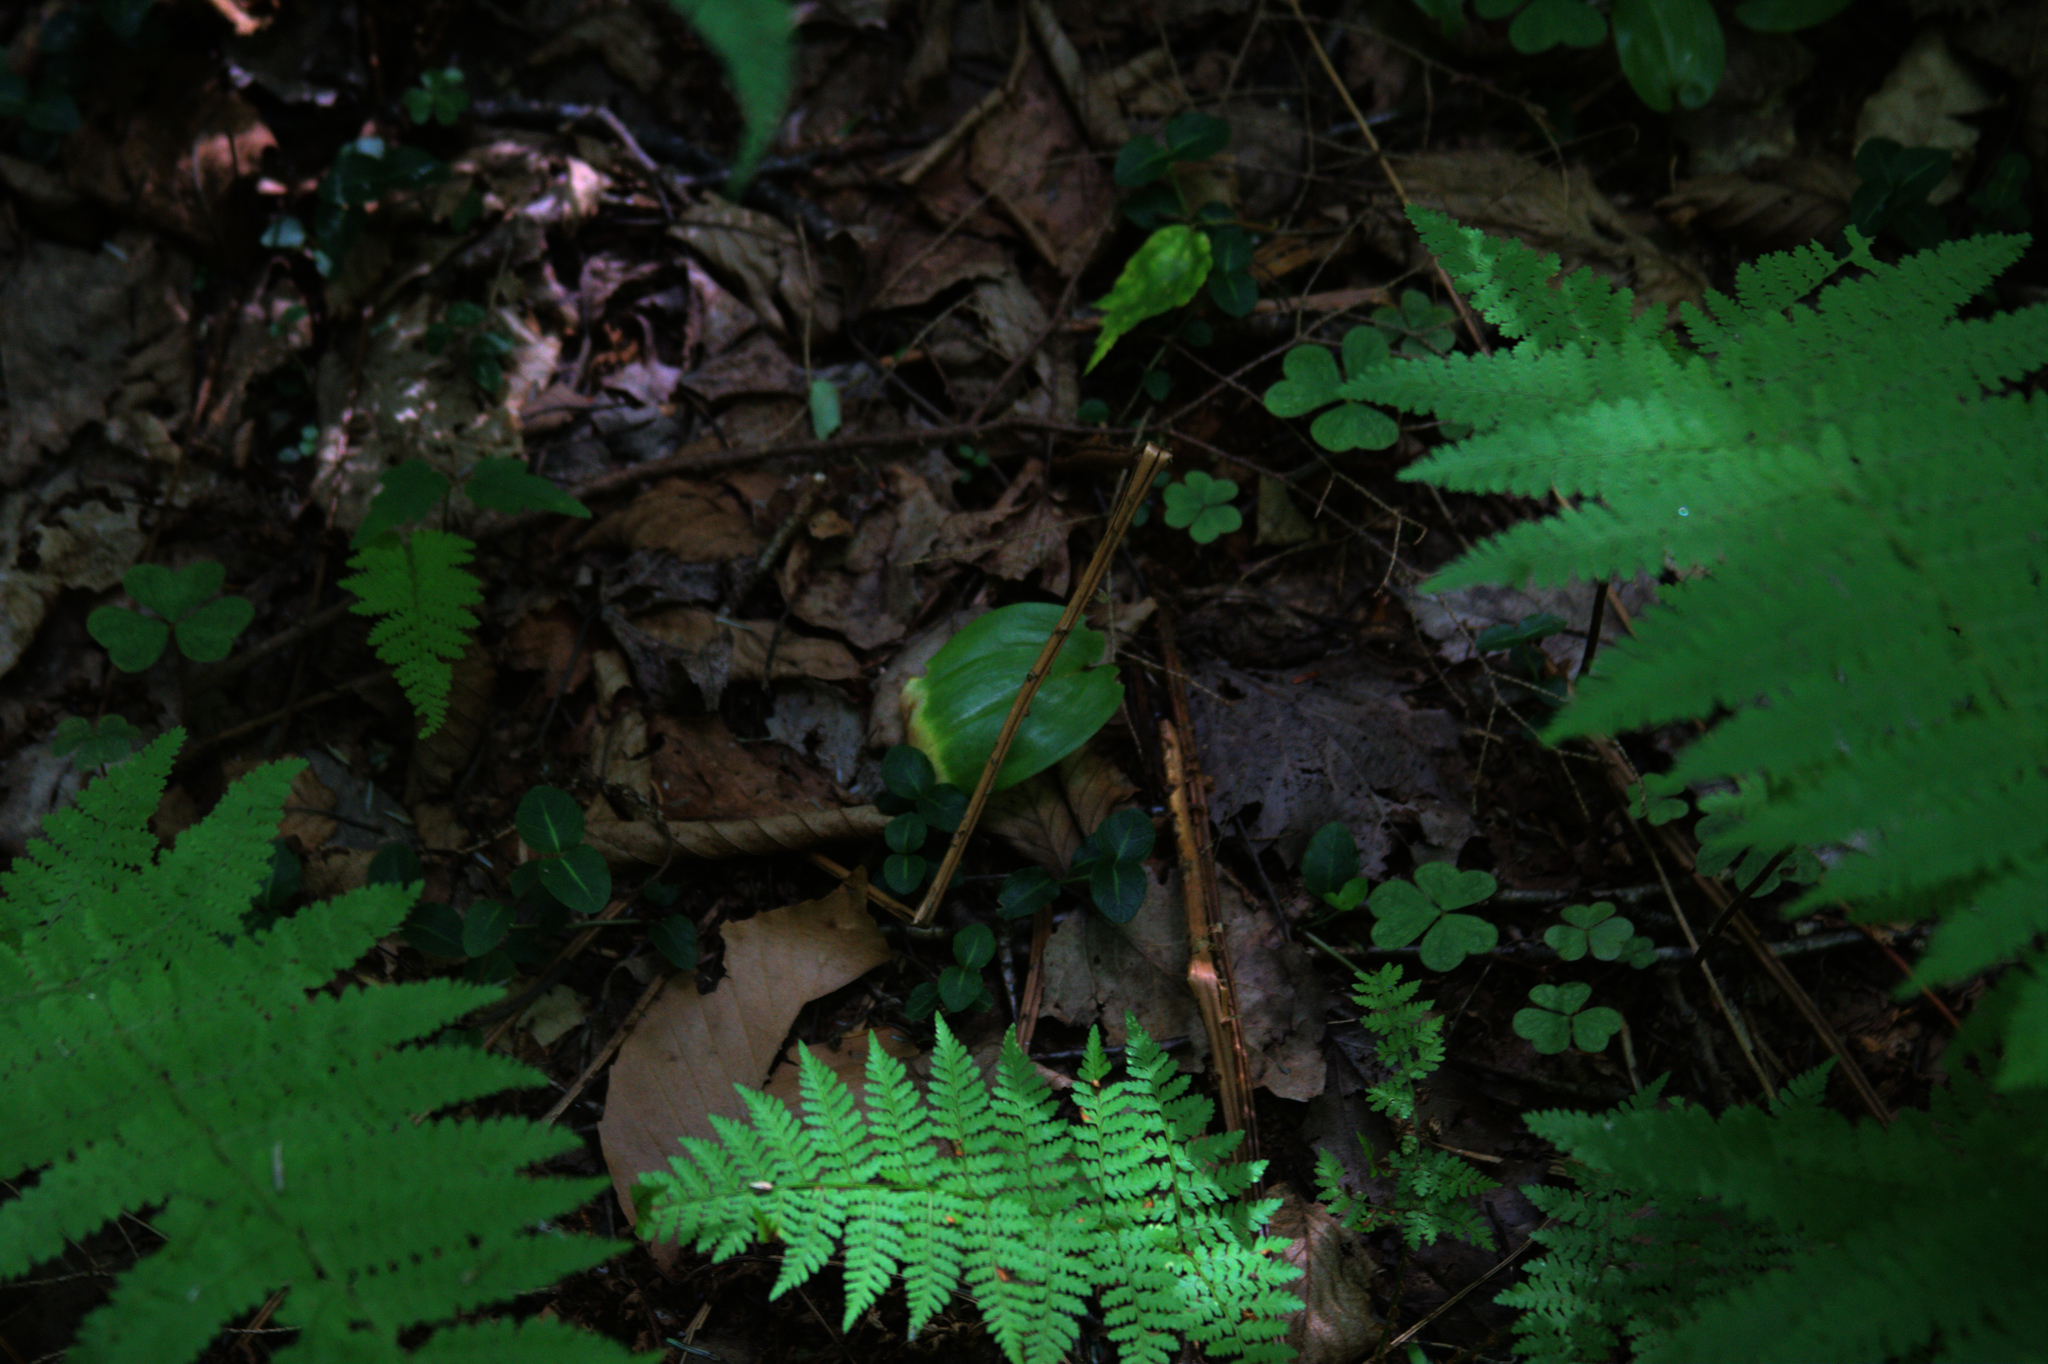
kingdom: Plantae
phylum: Tracheophyta
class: Liliopsida
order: Asparagales
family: Asparagaceae
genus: Maianthemum
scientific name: Maianthemum canadense
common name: False lily-of-the-valley
